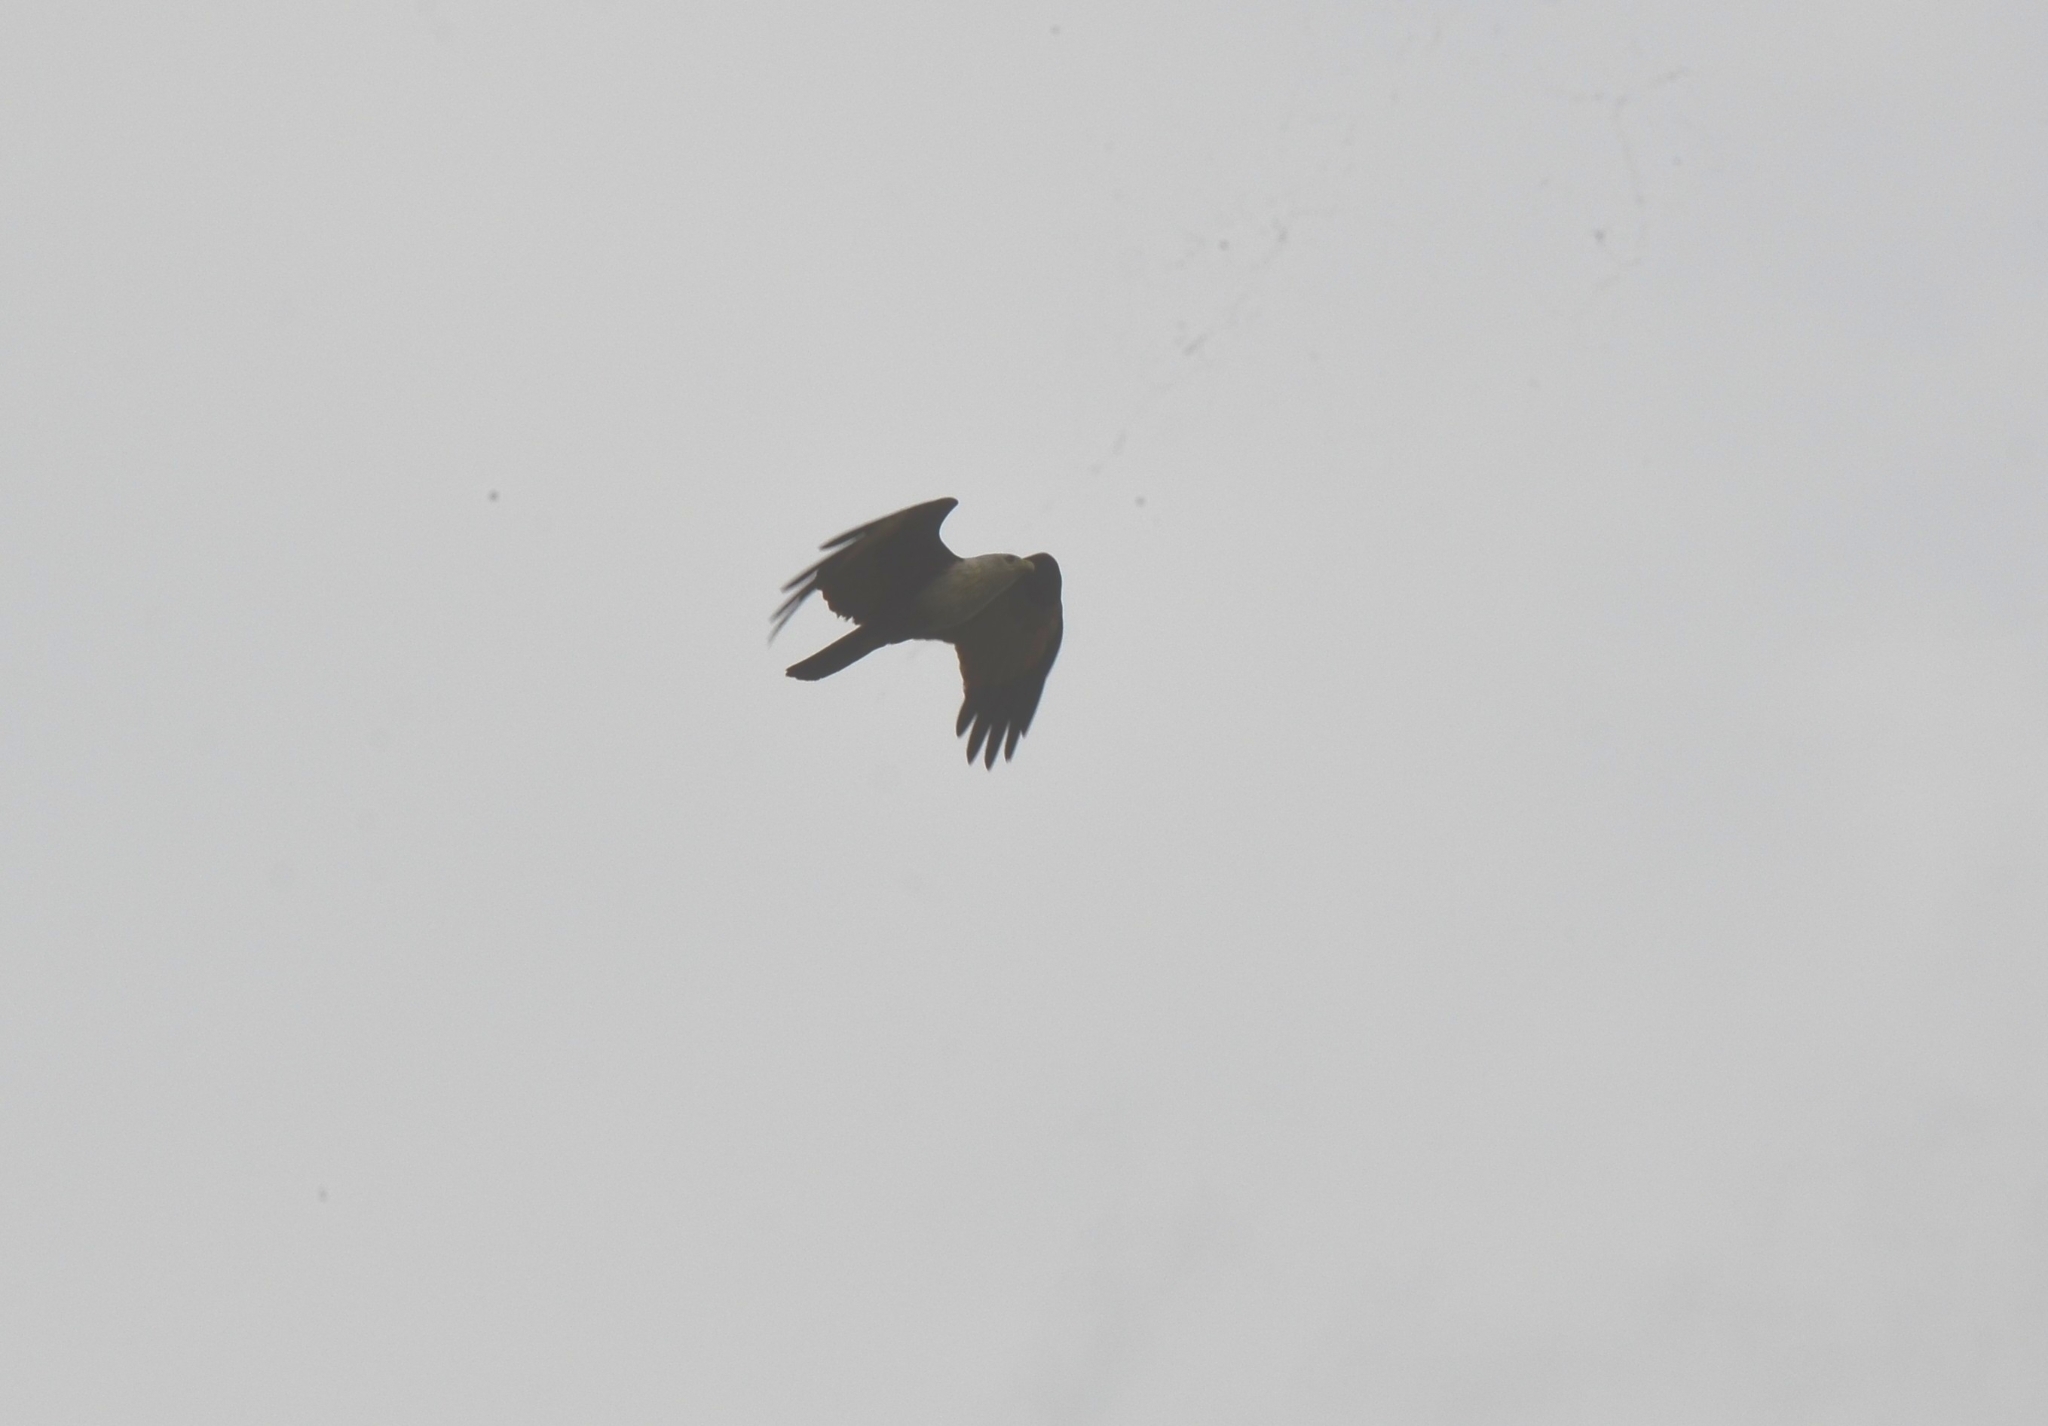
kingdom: Animalia
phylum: Chordata
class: Aves
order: Accipitriformes
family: Accipitridae
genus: Haliastur
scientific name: Haliastur indus
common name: Brahminy kite
